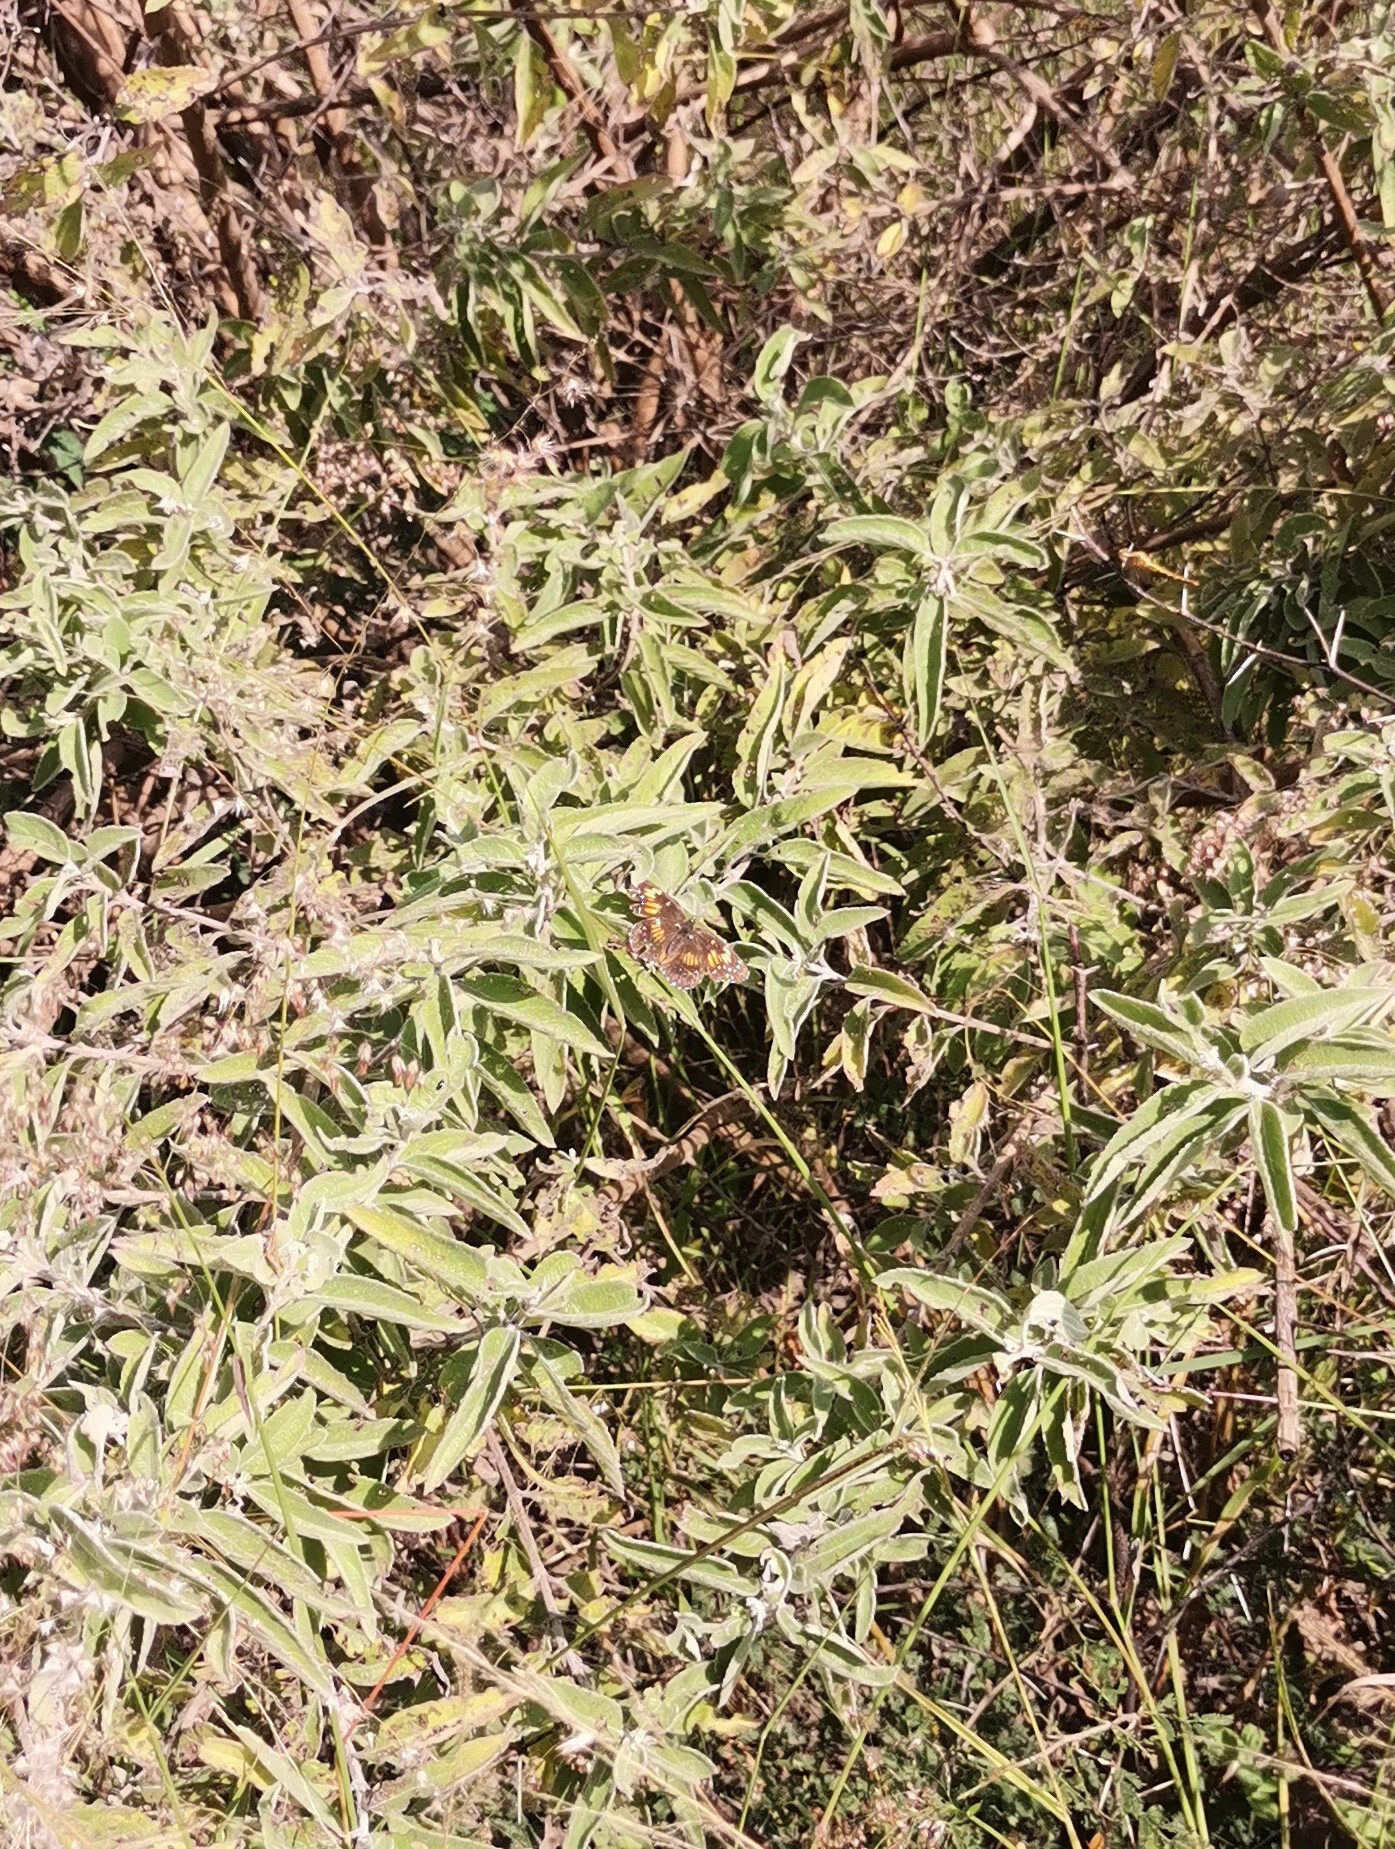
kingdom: Animalia
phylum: Arthropoda
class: Insecta
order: Lepidoptera
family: Nymphalidae
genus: Chlosyne
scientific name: Chlosyne lacinia
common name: Bordered patch
